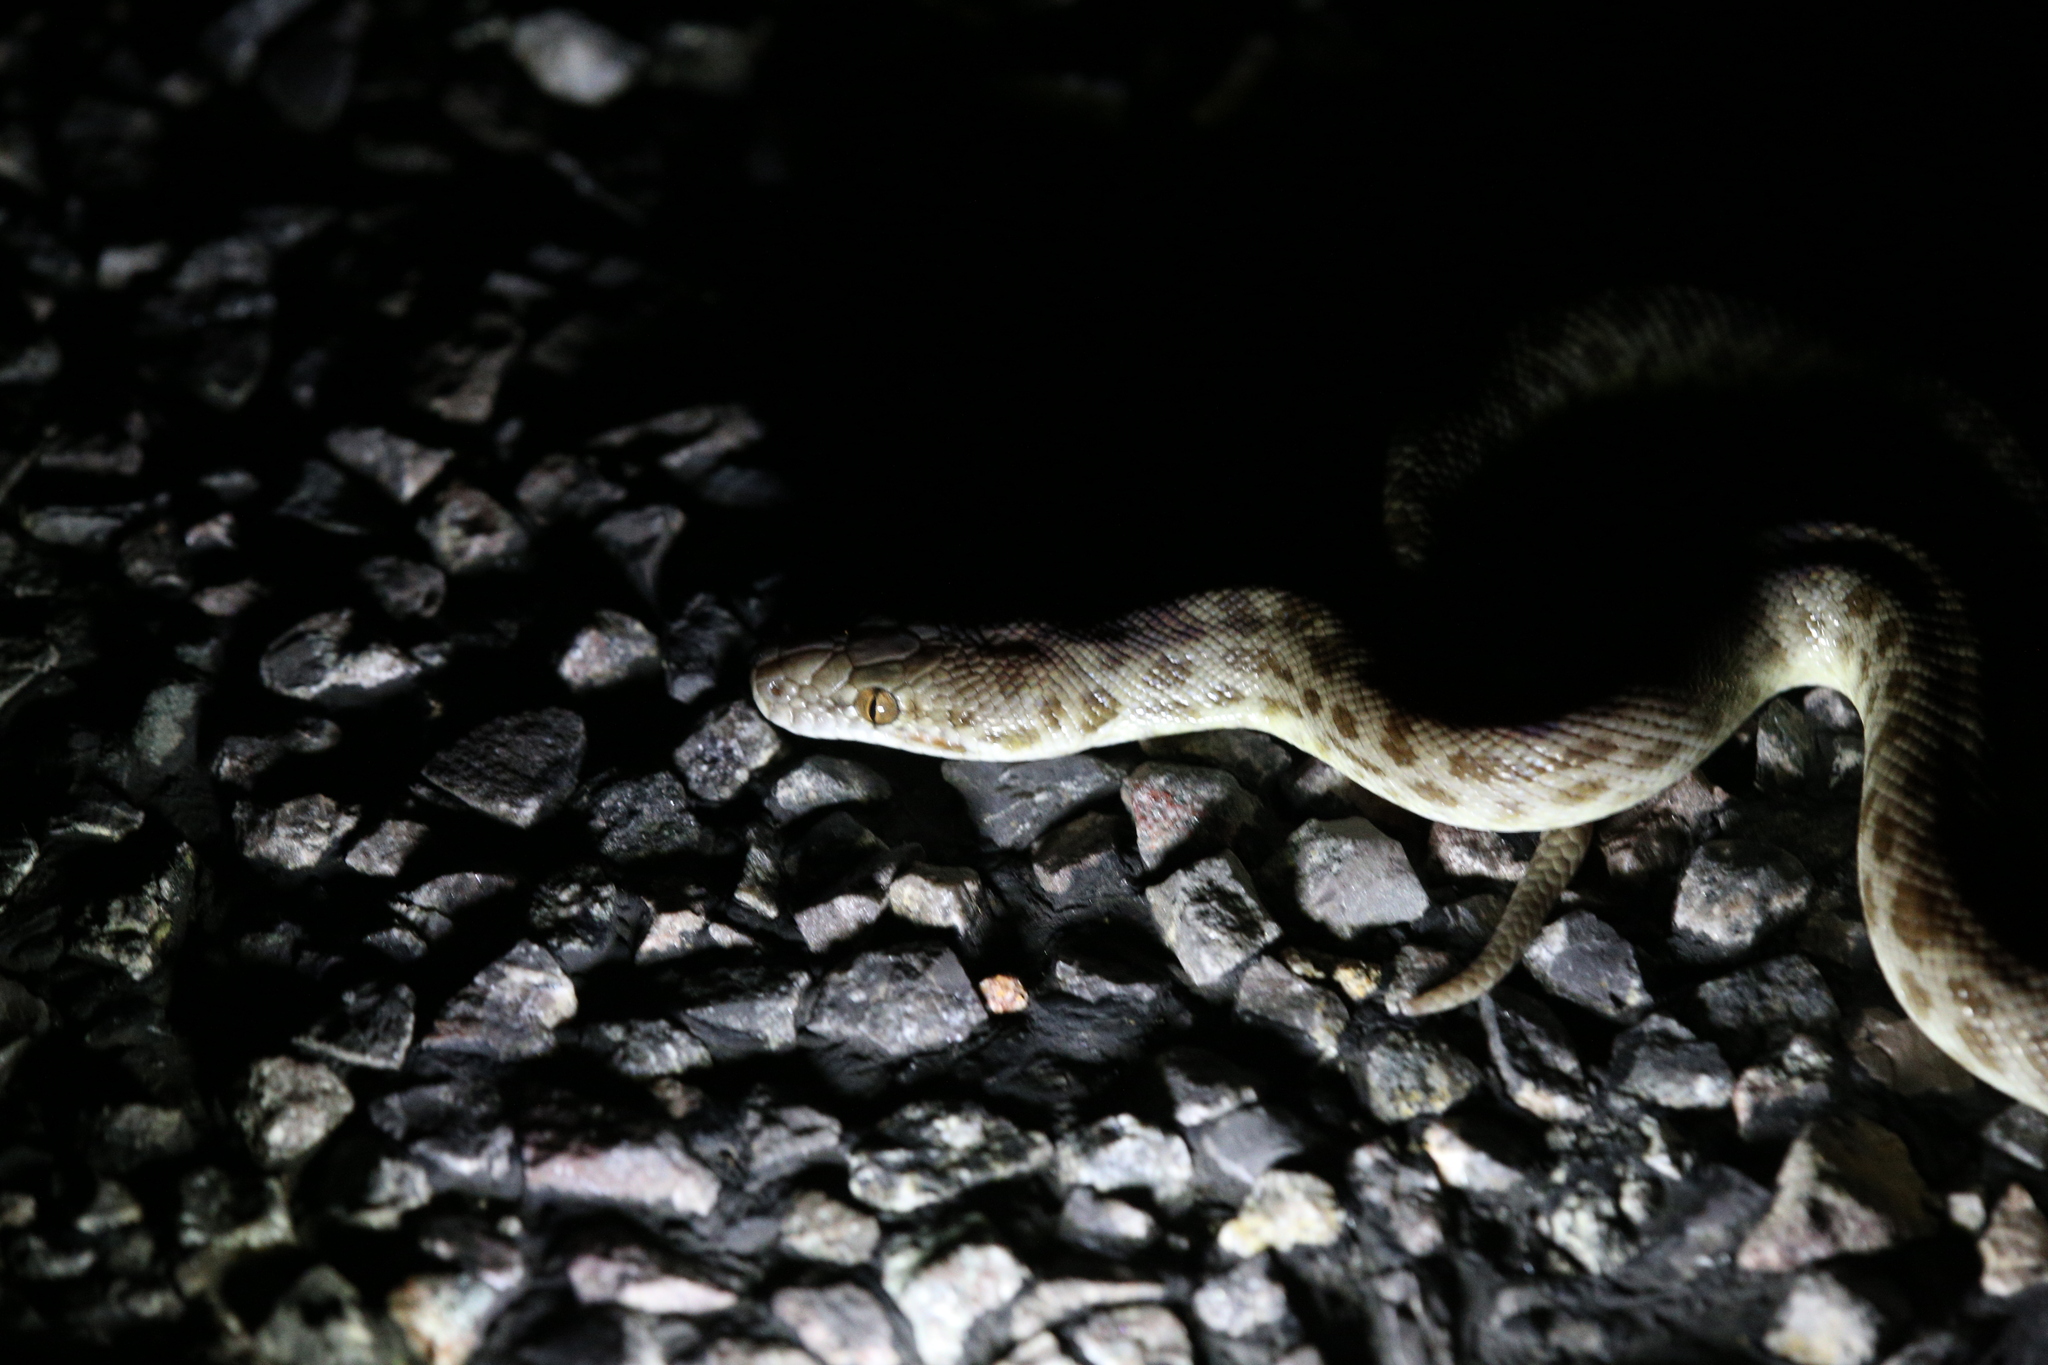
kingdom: Animalia
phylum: Chordata
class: Squamata
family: Pythonidae
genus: Antaresia
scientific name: Antaresia childreni
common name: Children's python
